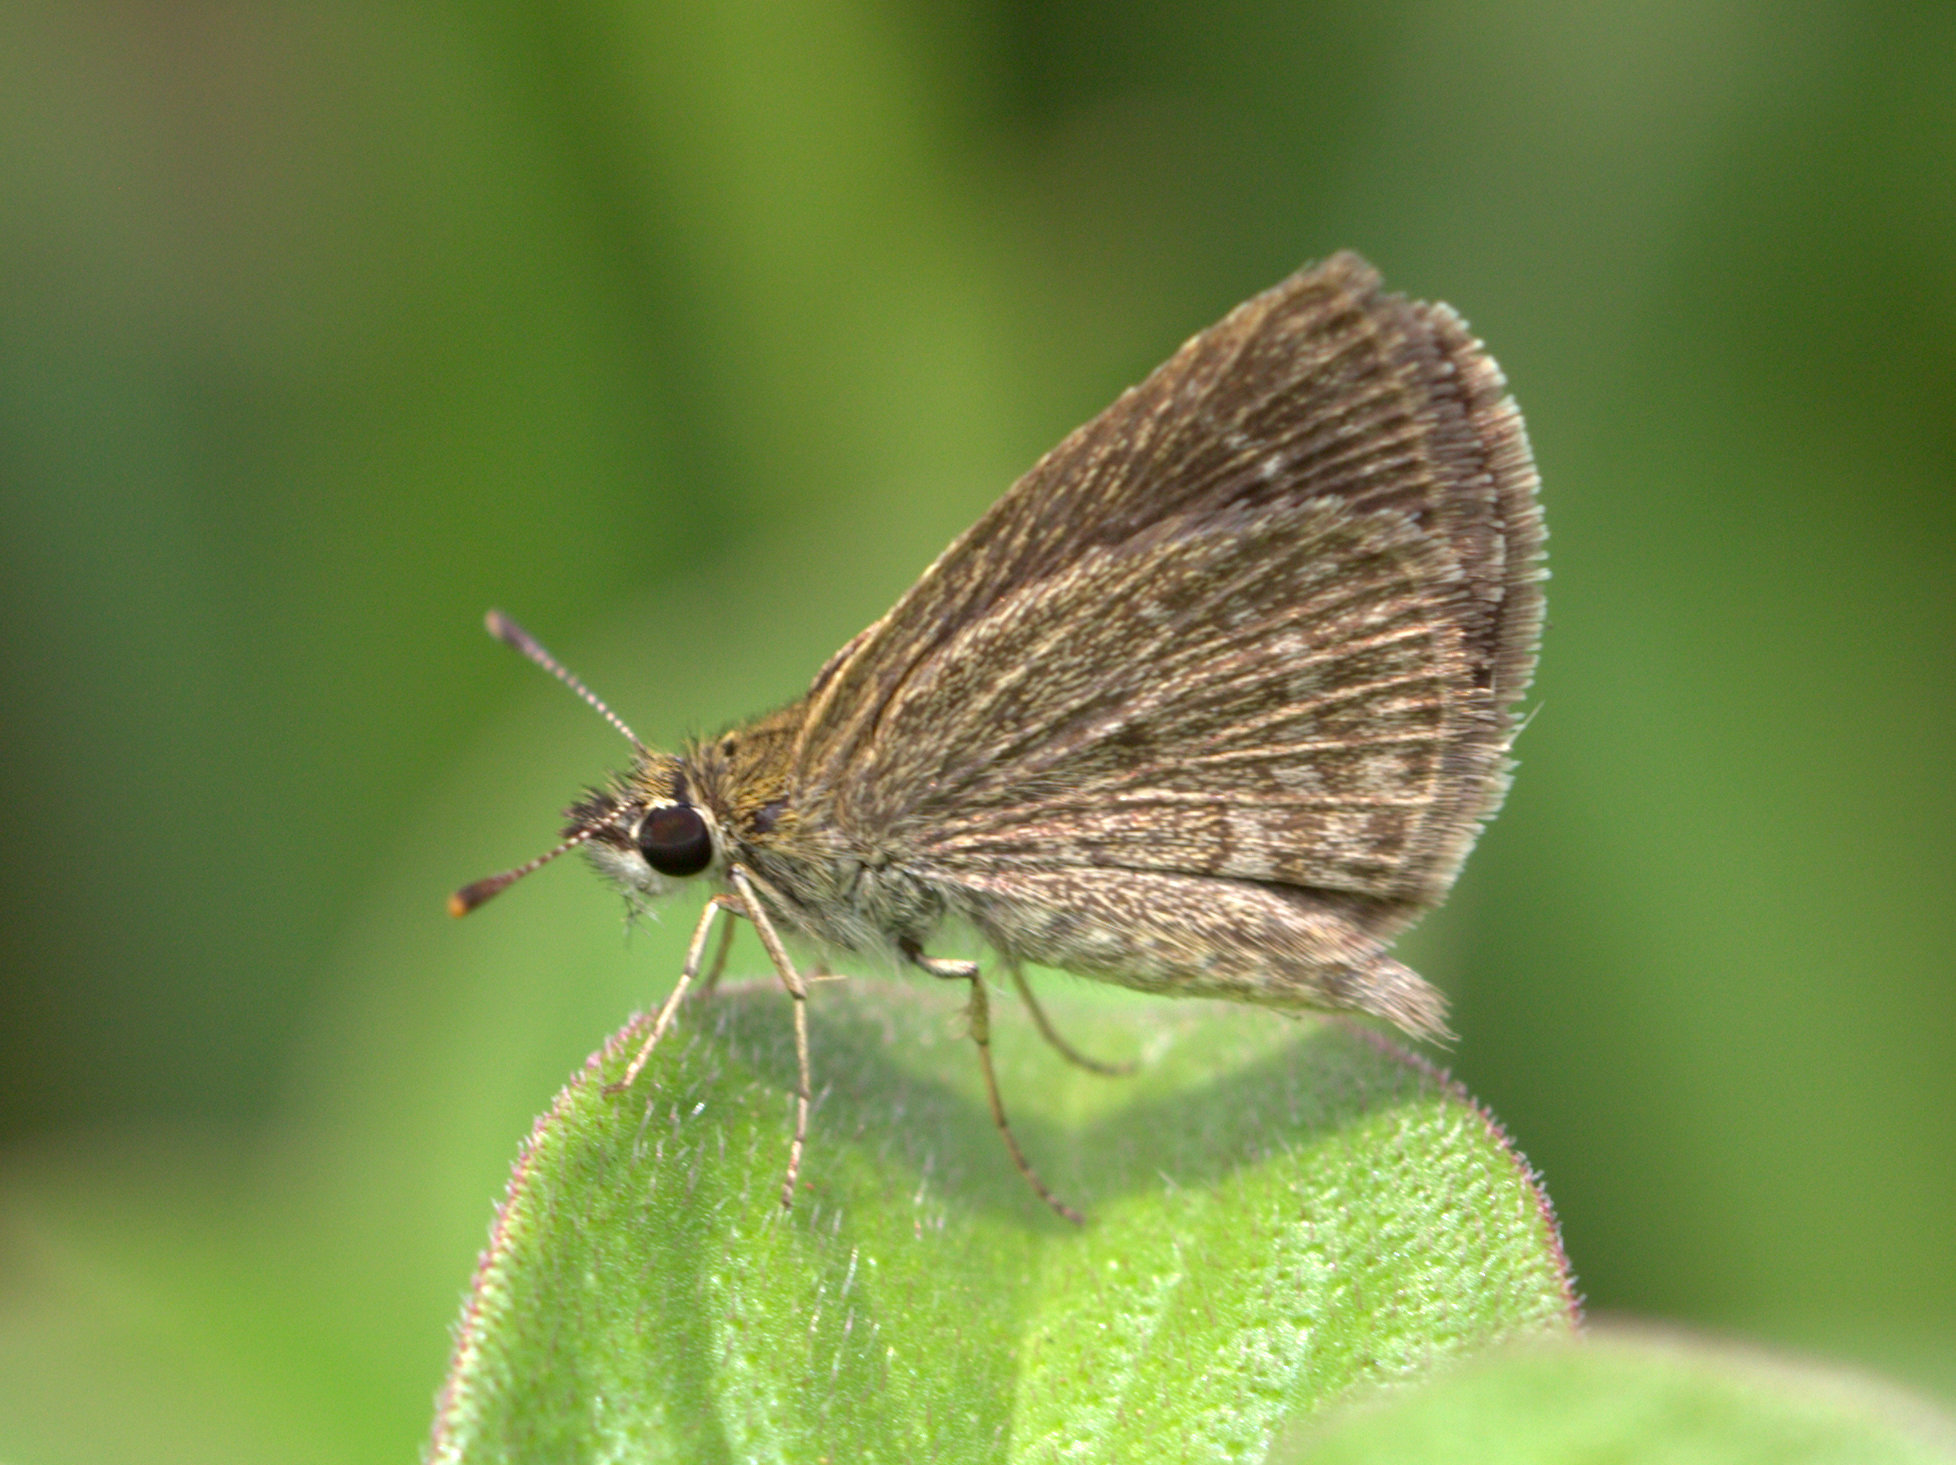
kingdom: Animalia
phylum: Arthropoda
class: Insecta
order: Lepidoptera
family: Hesperiidae
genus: Aeromachus
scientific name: Aeromachus pygmaeus
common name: Pygmy scrub hopper
